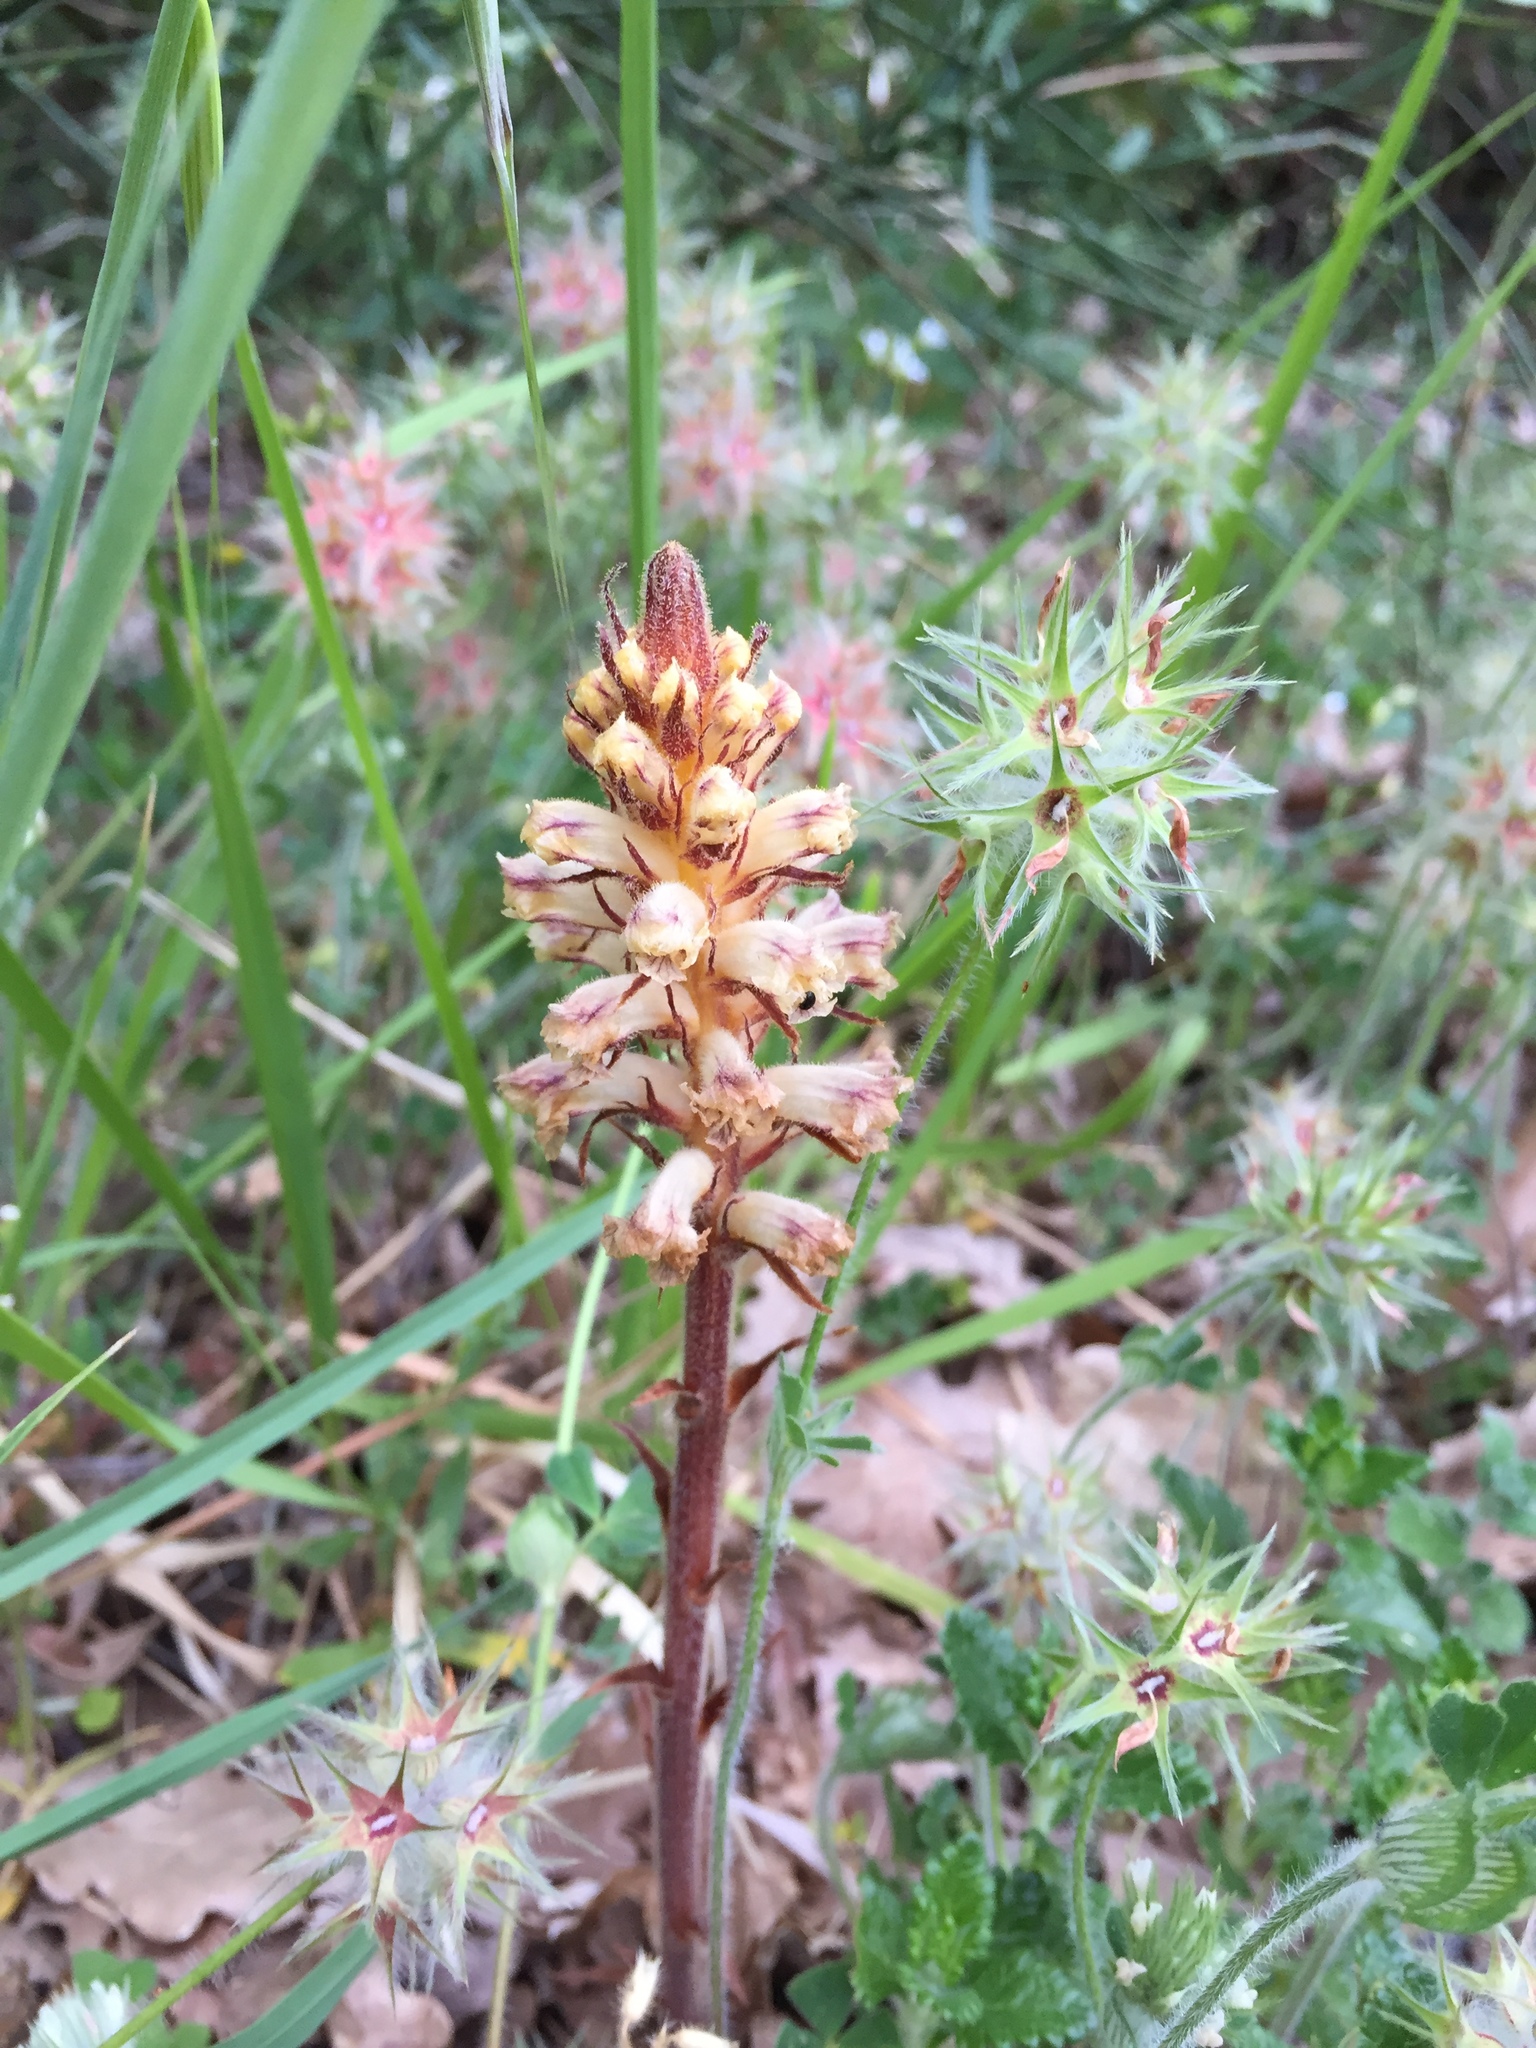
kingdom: Plantae
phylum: Tracheophyta
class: Magnoliopsida
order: Lamiales
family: Orobanchaceae
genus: Orobanche
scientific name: Orobanche minor
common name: Common broomrape
